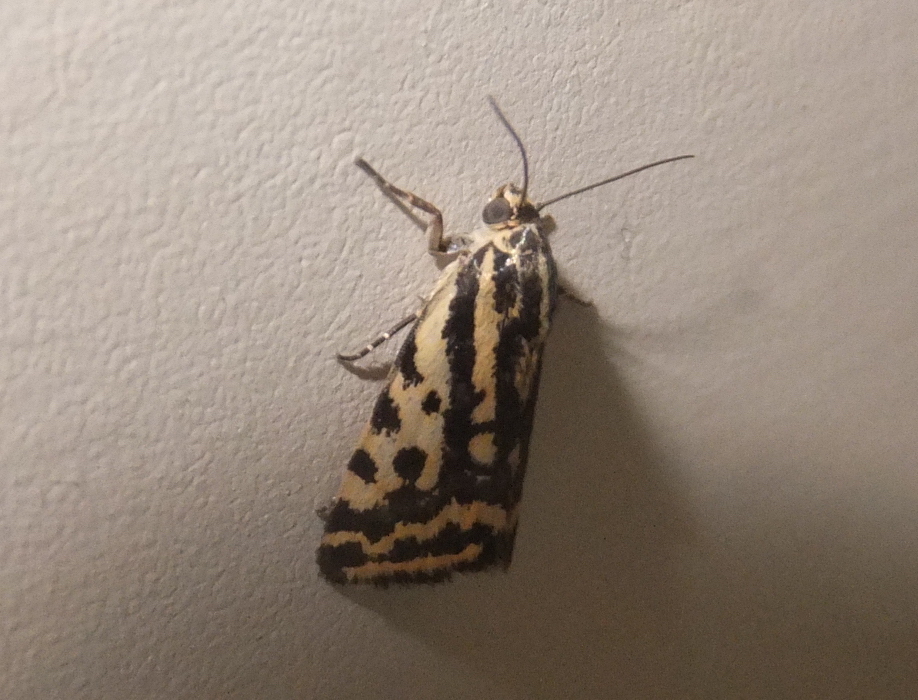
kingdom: Animalia
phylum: Arthropoda
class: Insecta
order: Lepidoptera
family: Noctuidae
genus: Acontia
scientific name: Acontia trabealis
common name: Spotted sulphur
